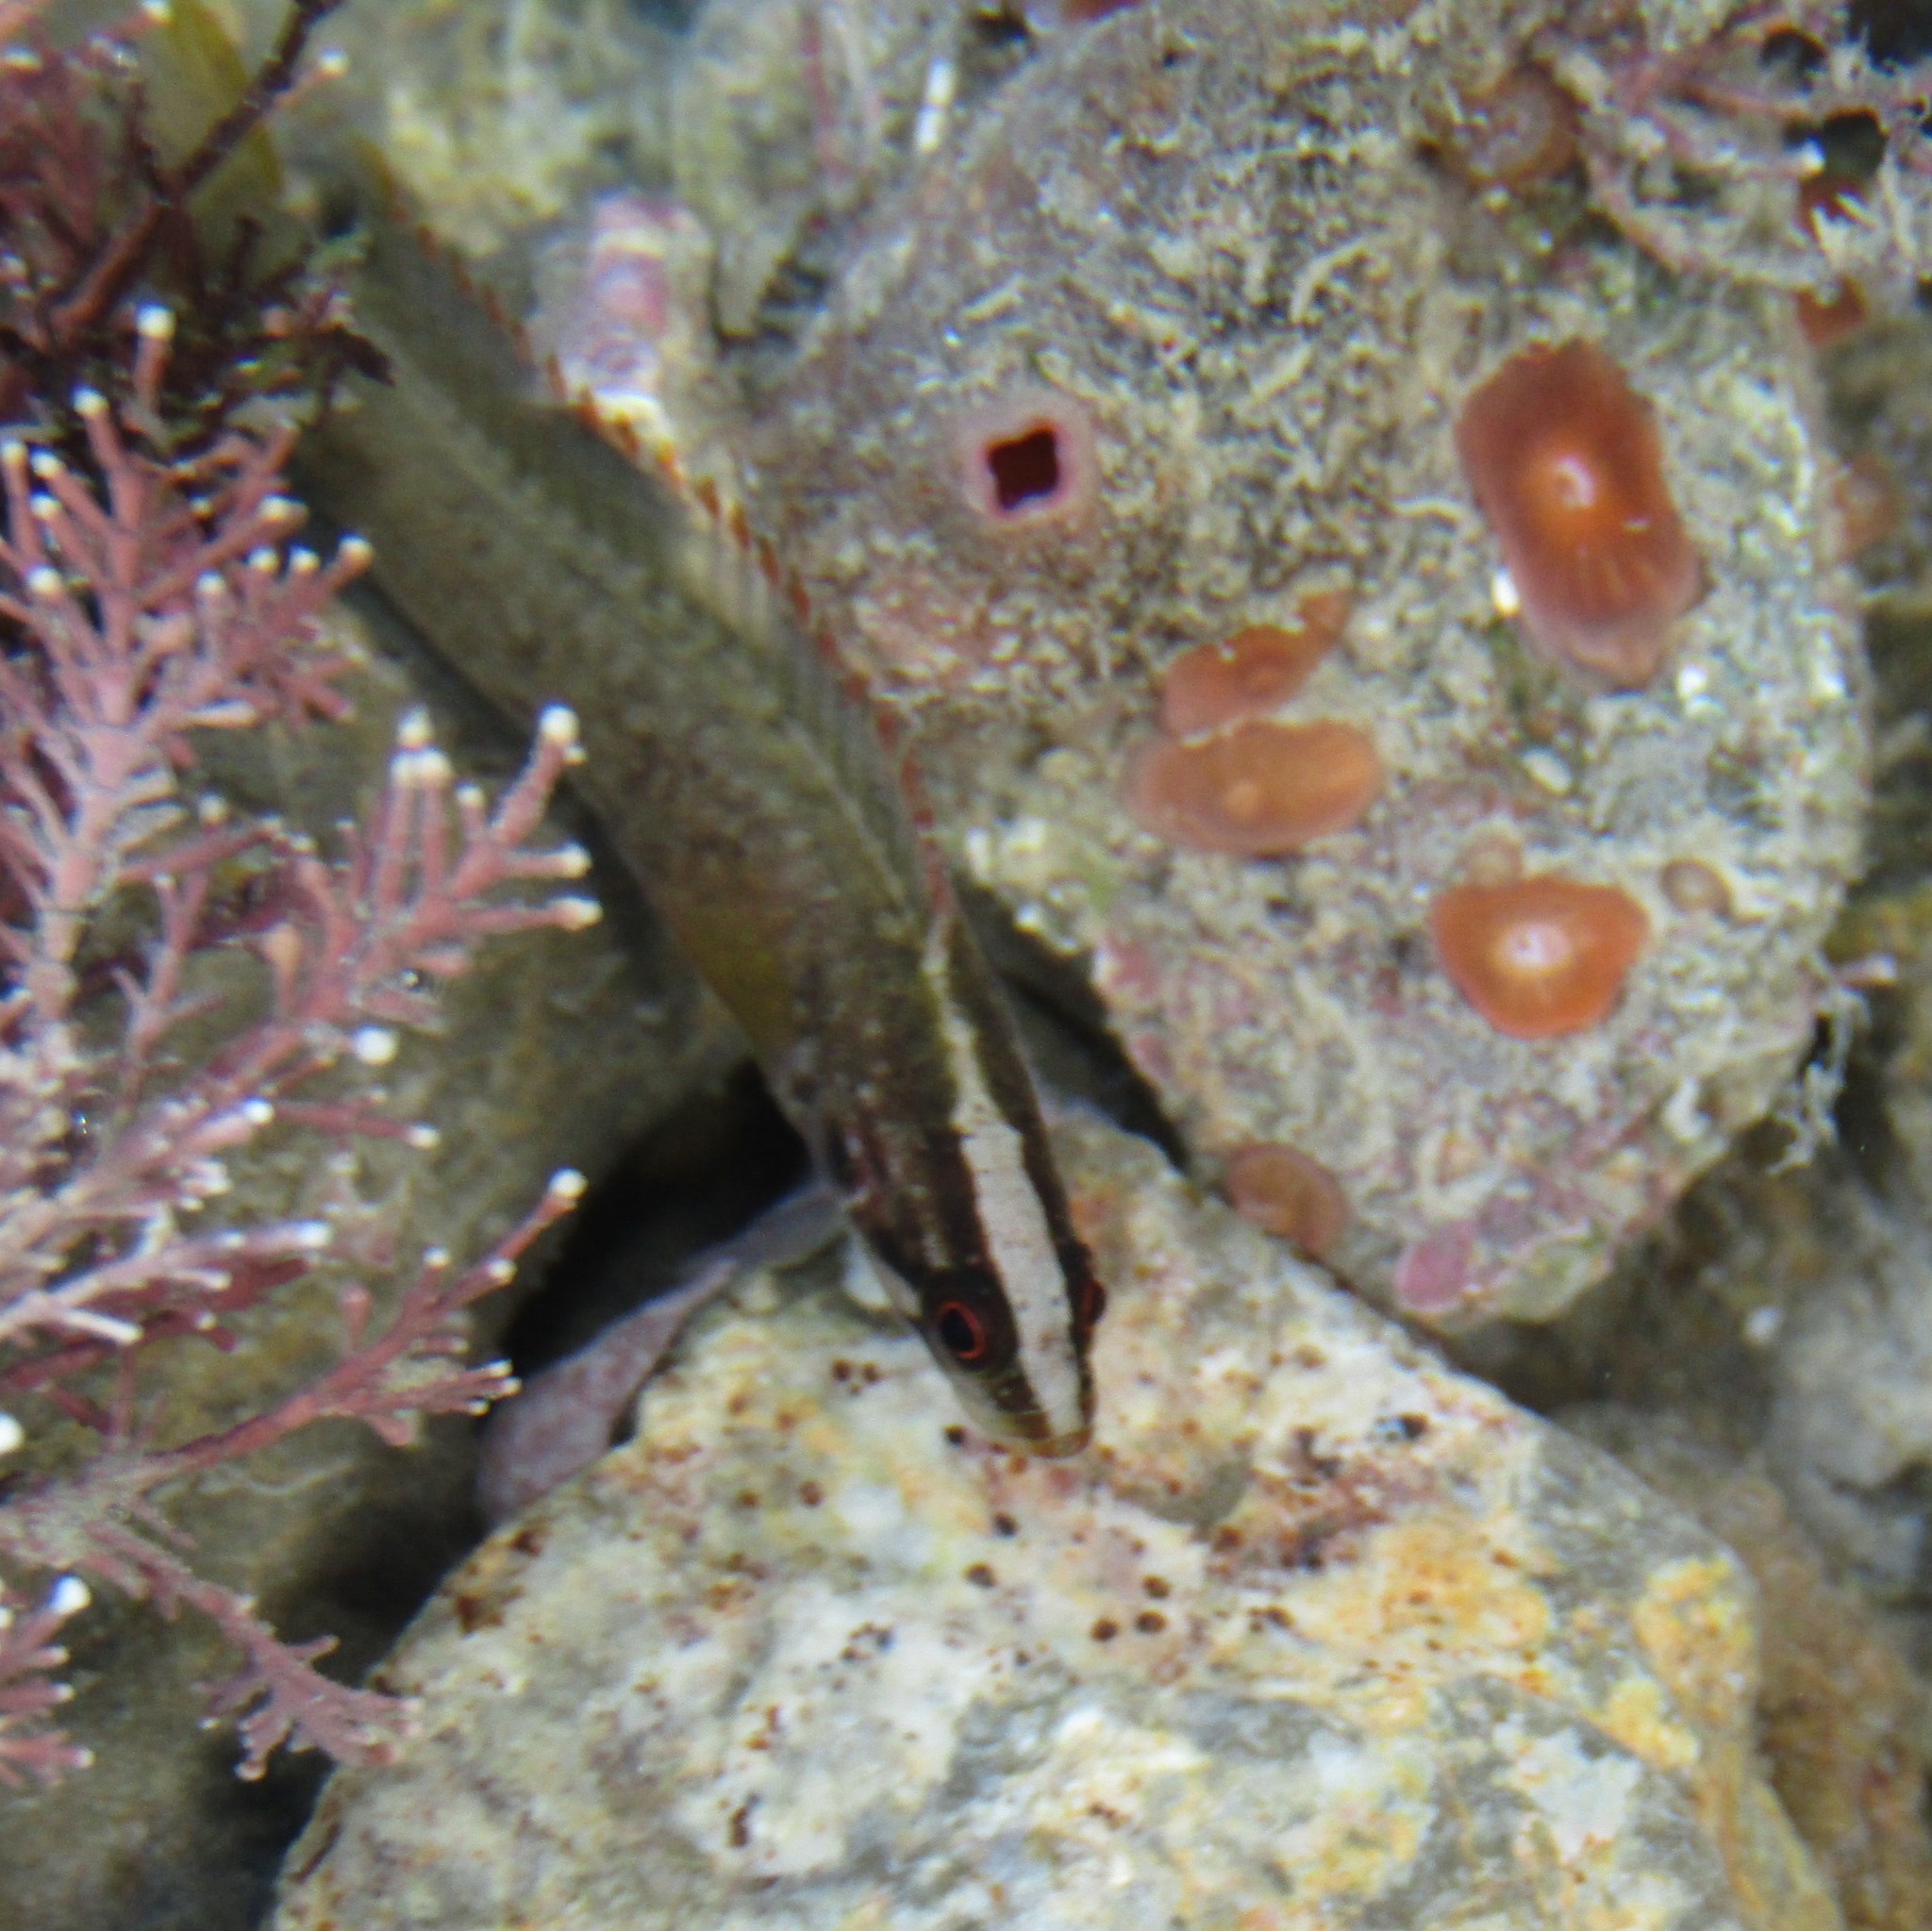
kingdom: Animalia
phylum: Chordata
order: Perciformes
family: Plesiopidae
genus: Acanthoclinus
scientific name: Acanthoclinus fuscus
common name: Olive rockfish
